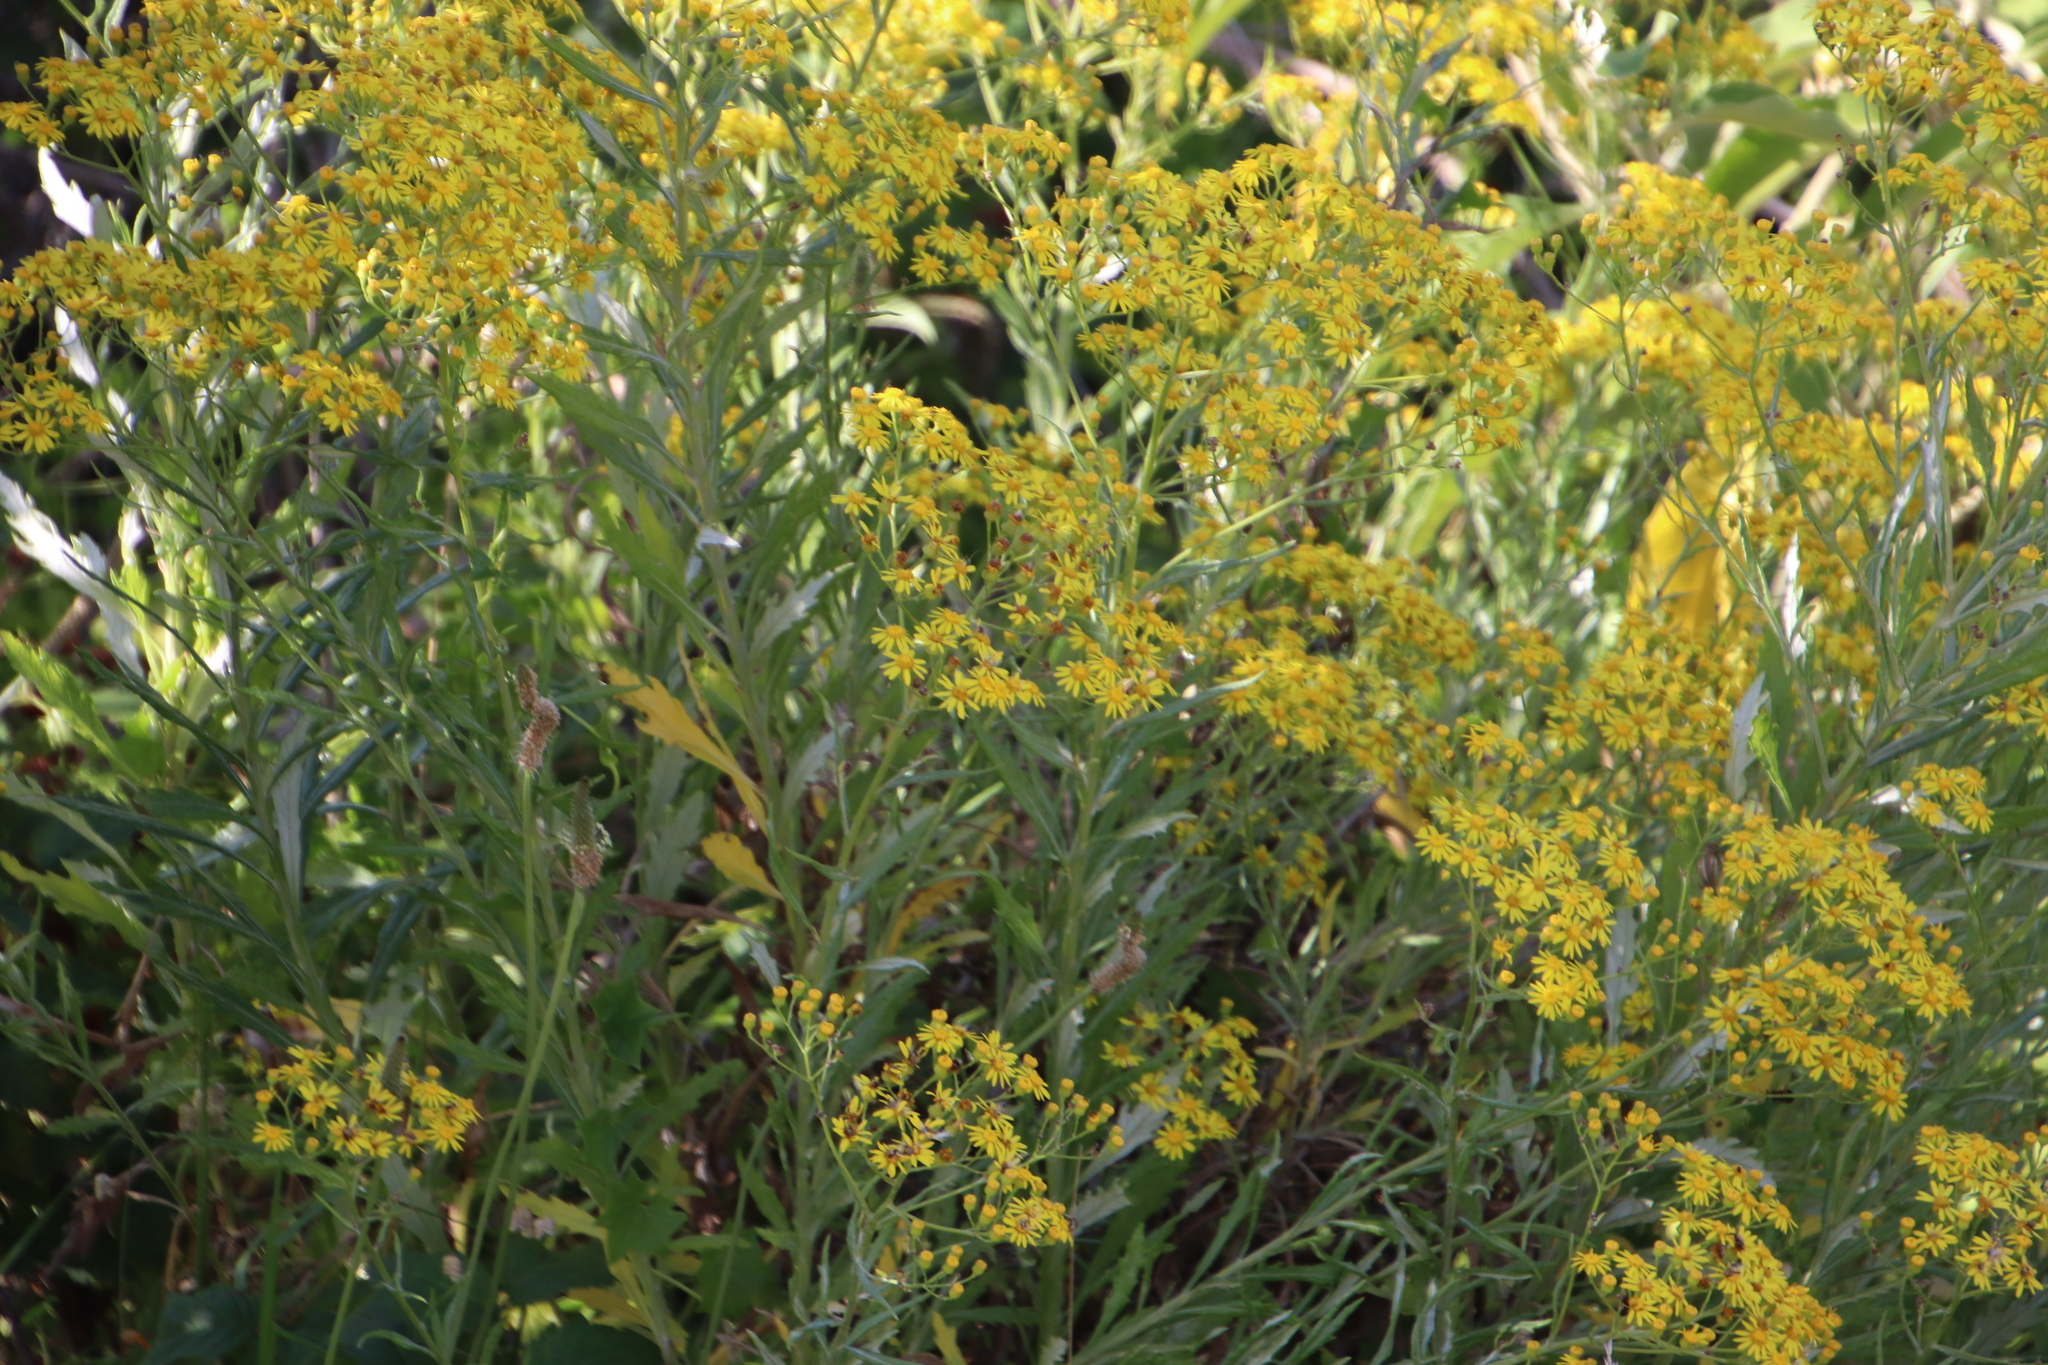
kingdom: Plantae
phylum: Tracheophyta
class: Magnoliopsida
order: Asterales
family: Asteraceae
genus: Senecio
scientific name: Senecio pterophorus
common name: Shoddy ragwort
